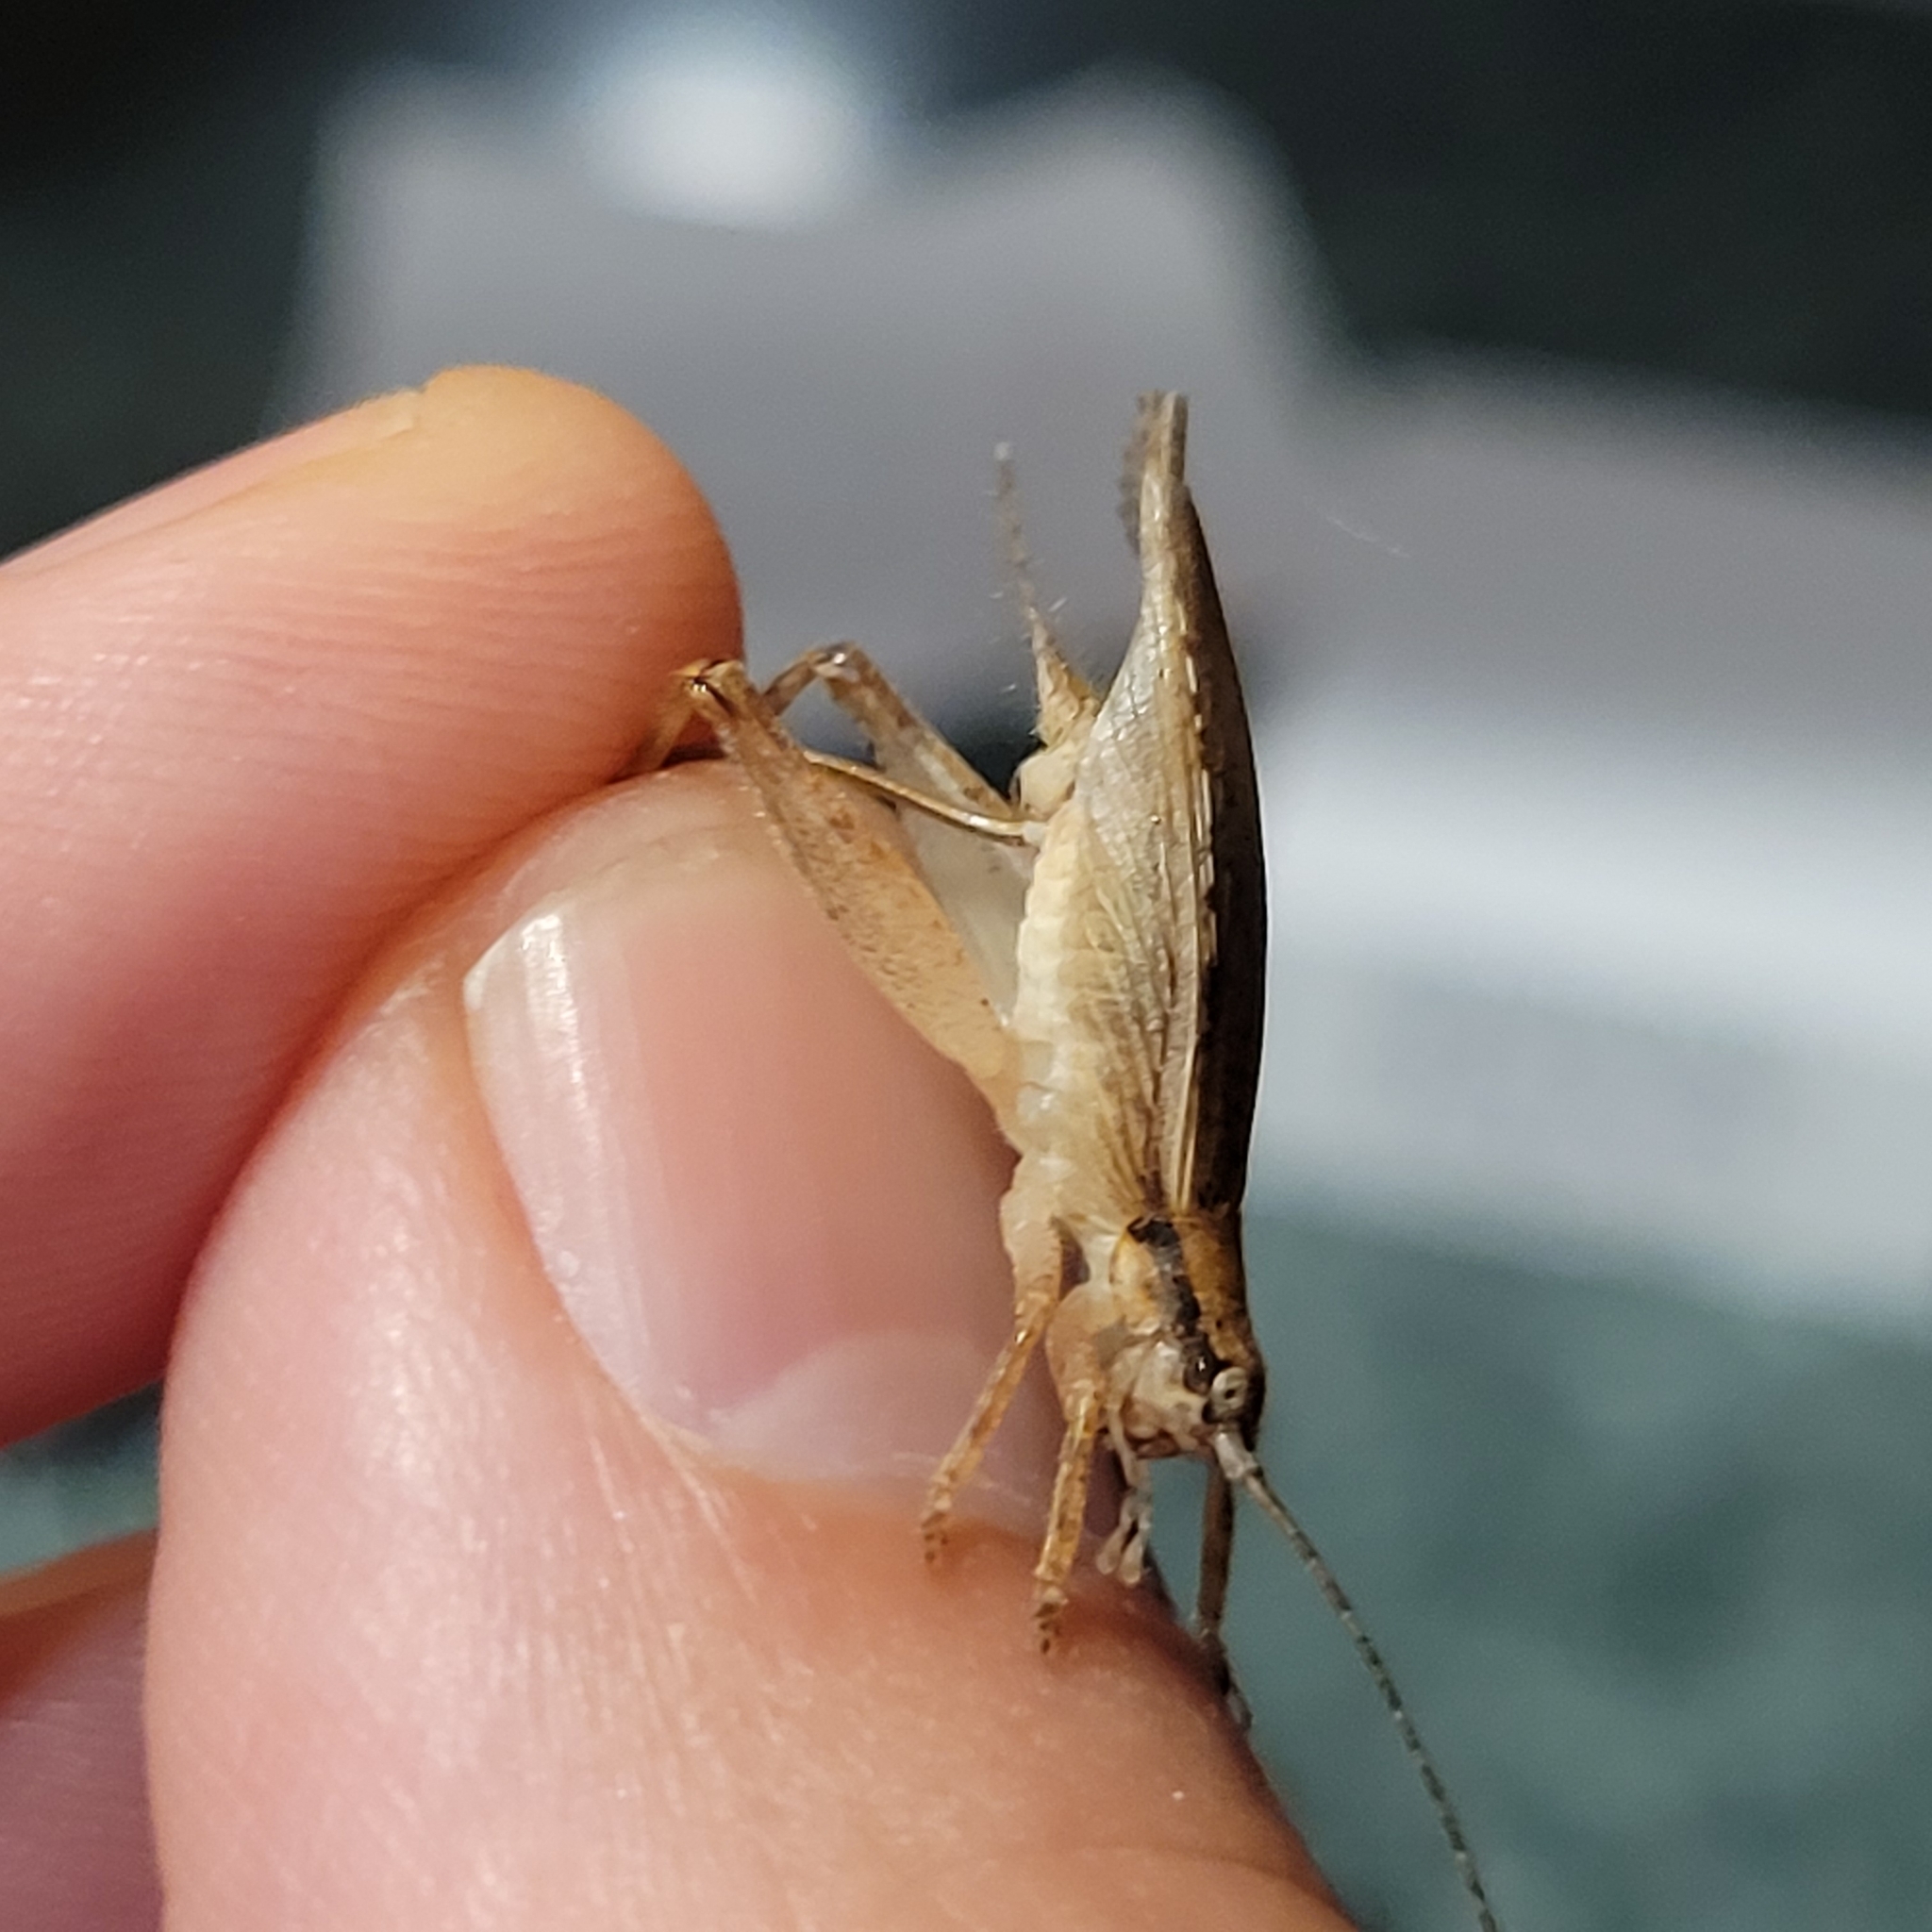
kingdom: Animalia
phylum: Arthropoda
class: Insecta
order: Orthoptera
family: Gryllidae
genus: Hapithus
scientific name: Hapithus saltator
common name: Jumping bush cricket
